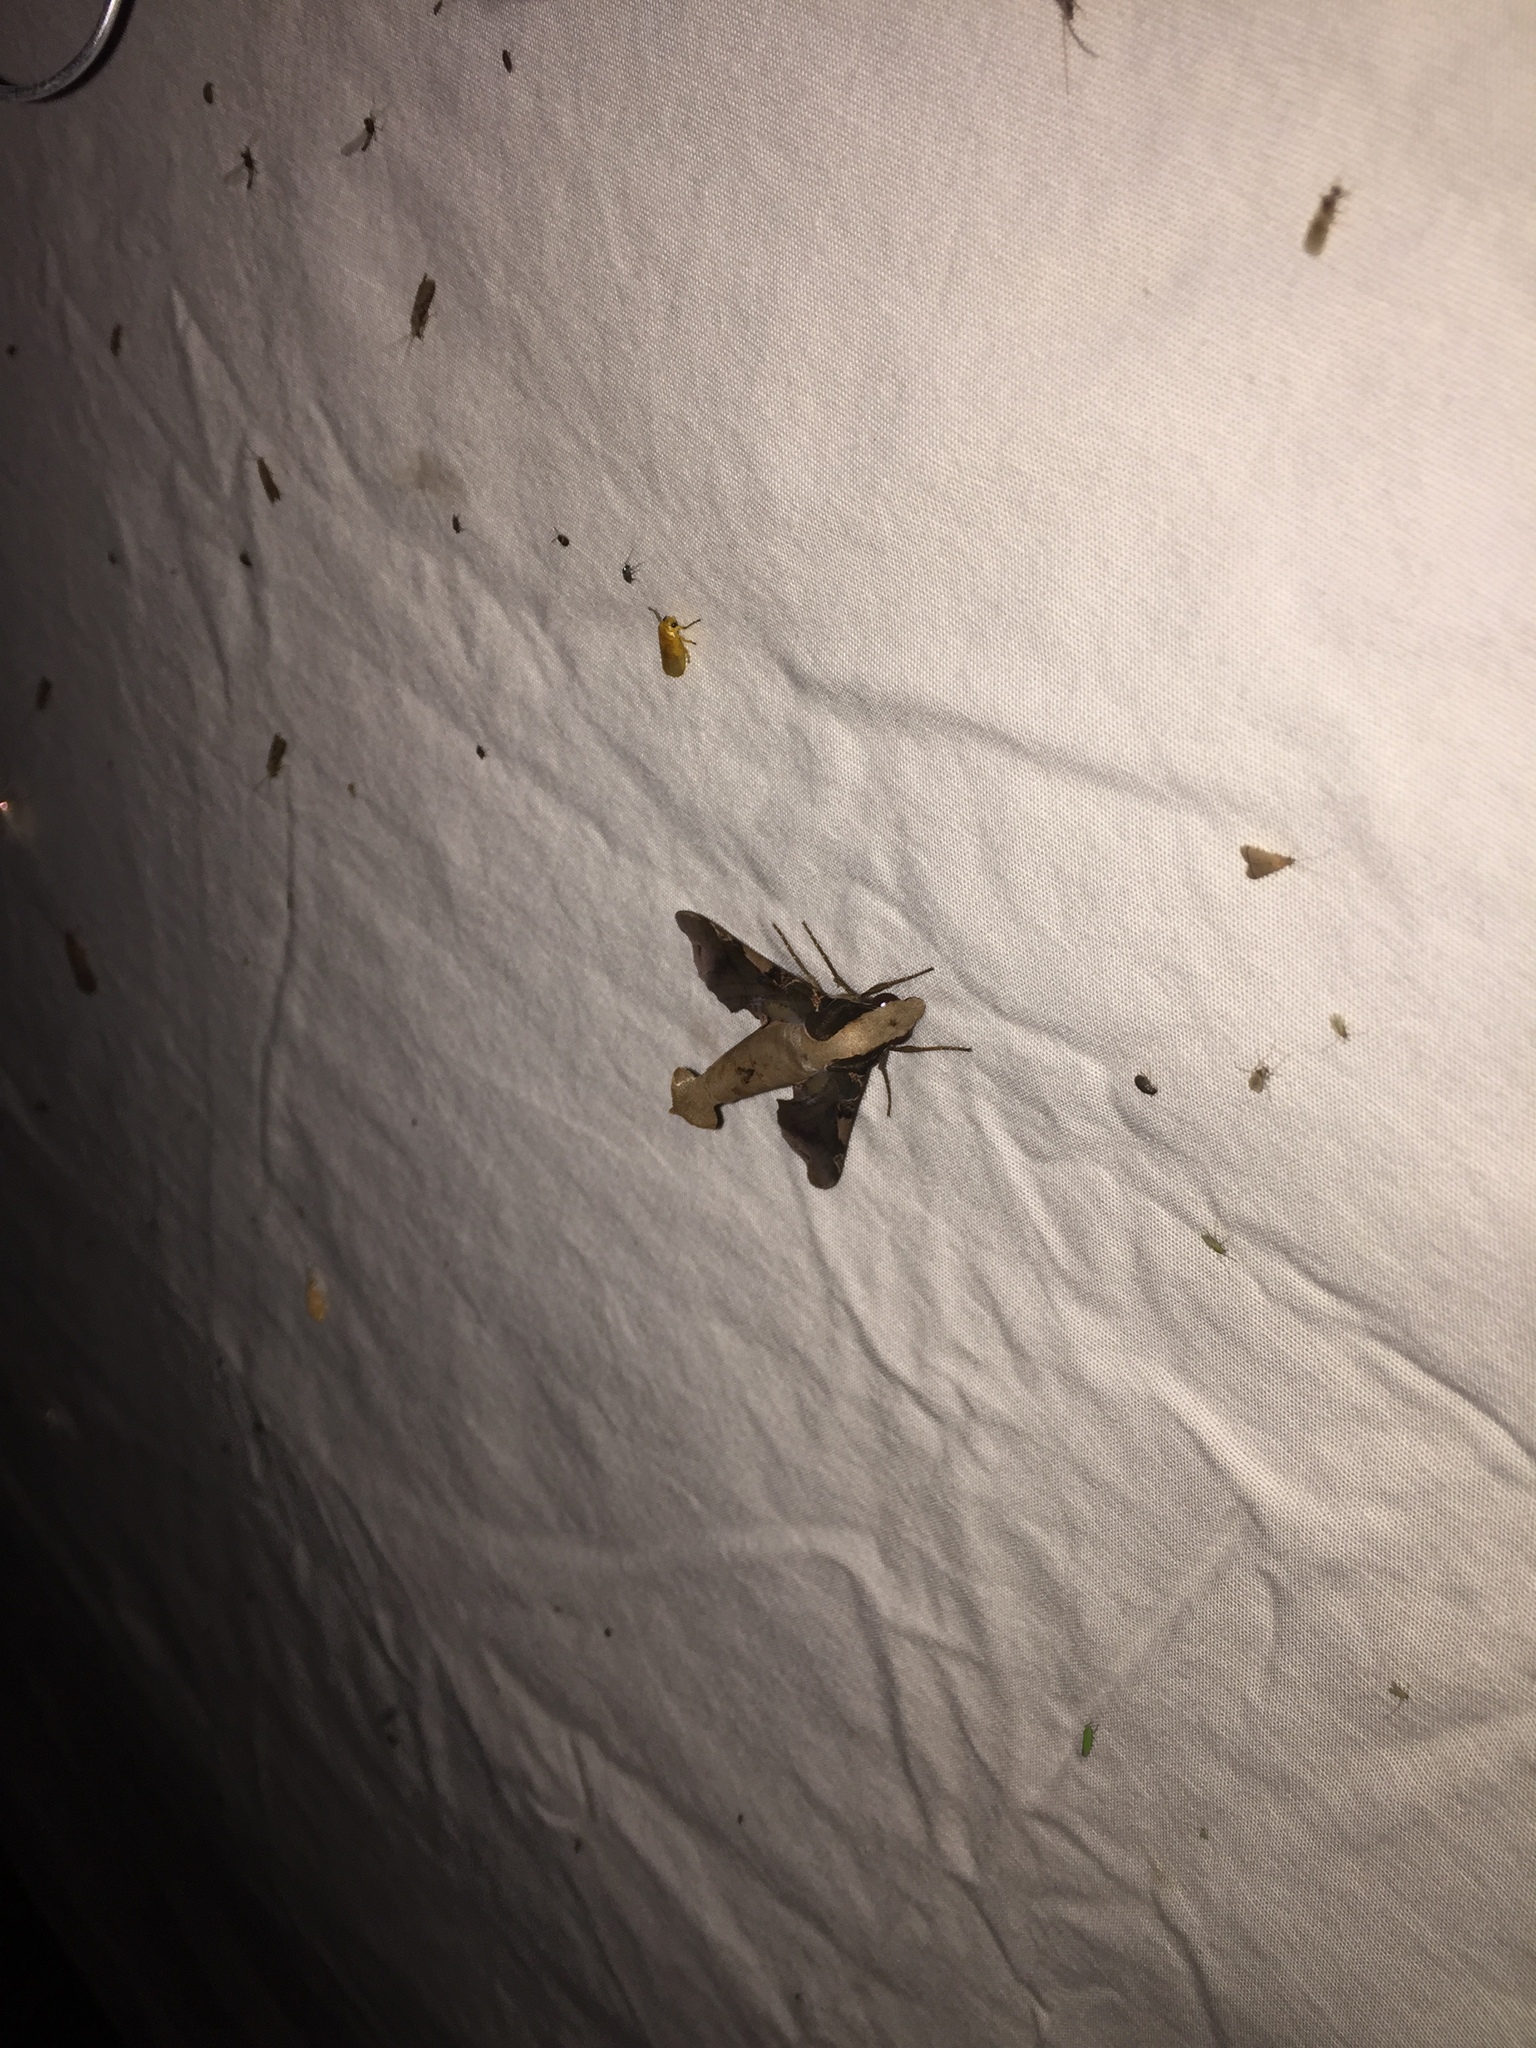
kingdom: Animalia
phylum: Arthropoda
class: Insecta
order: Lepidoptera
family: Sphingidae
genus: Callionima
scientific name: Callionima pan
